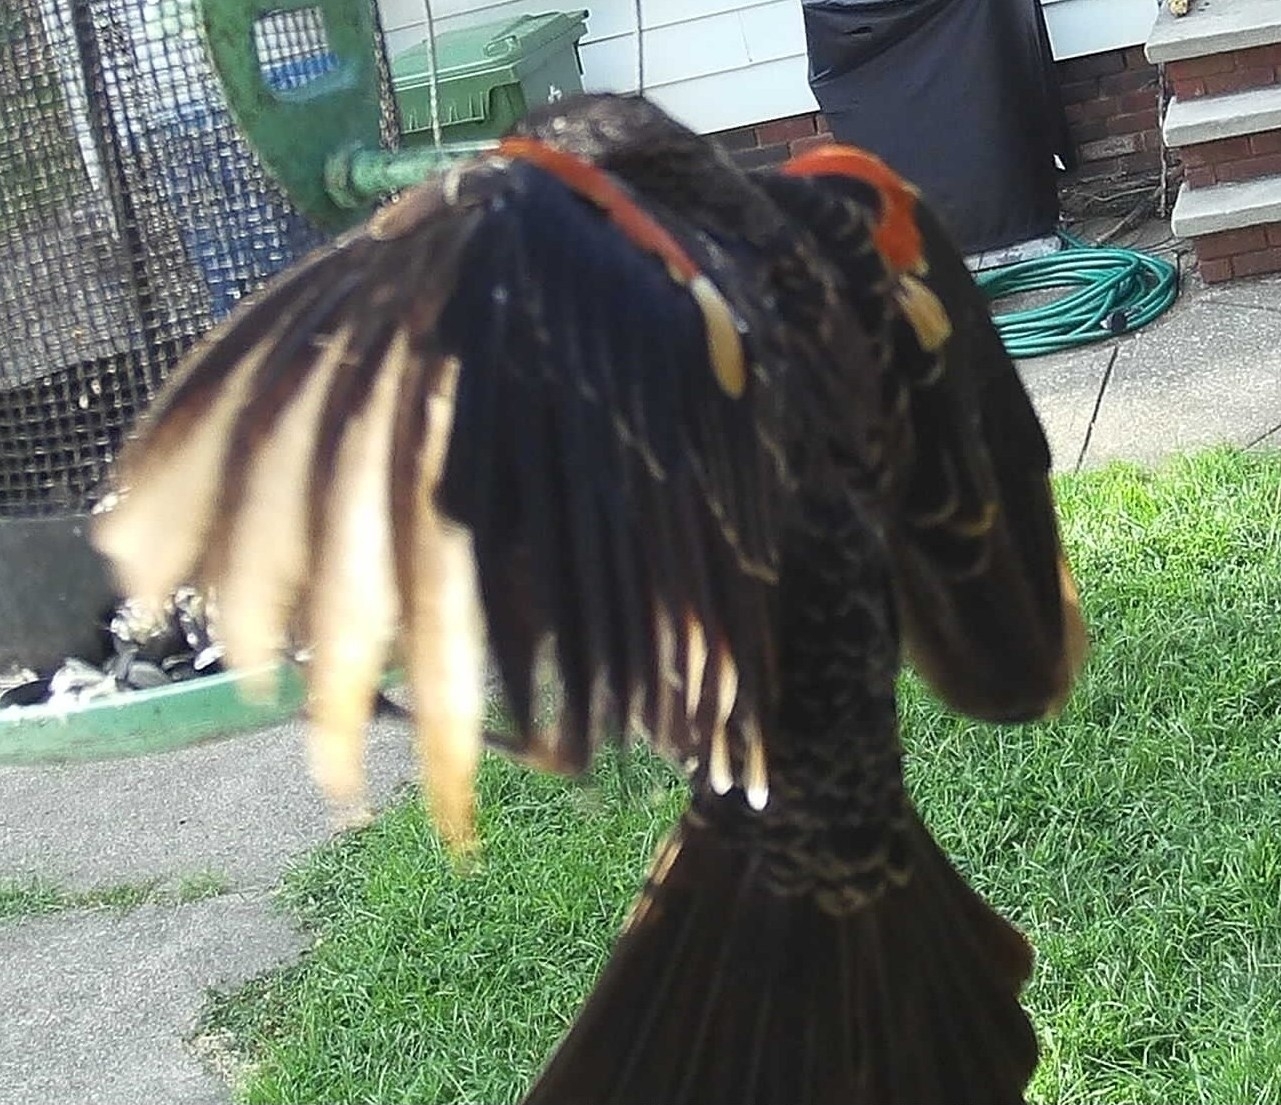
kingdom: Animalia
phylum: Chordata
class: Aves
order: Passeriformes
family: Icteridae
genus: Agelaius
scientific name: Agelaius phoeniceus
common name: Red-winged blackbird
